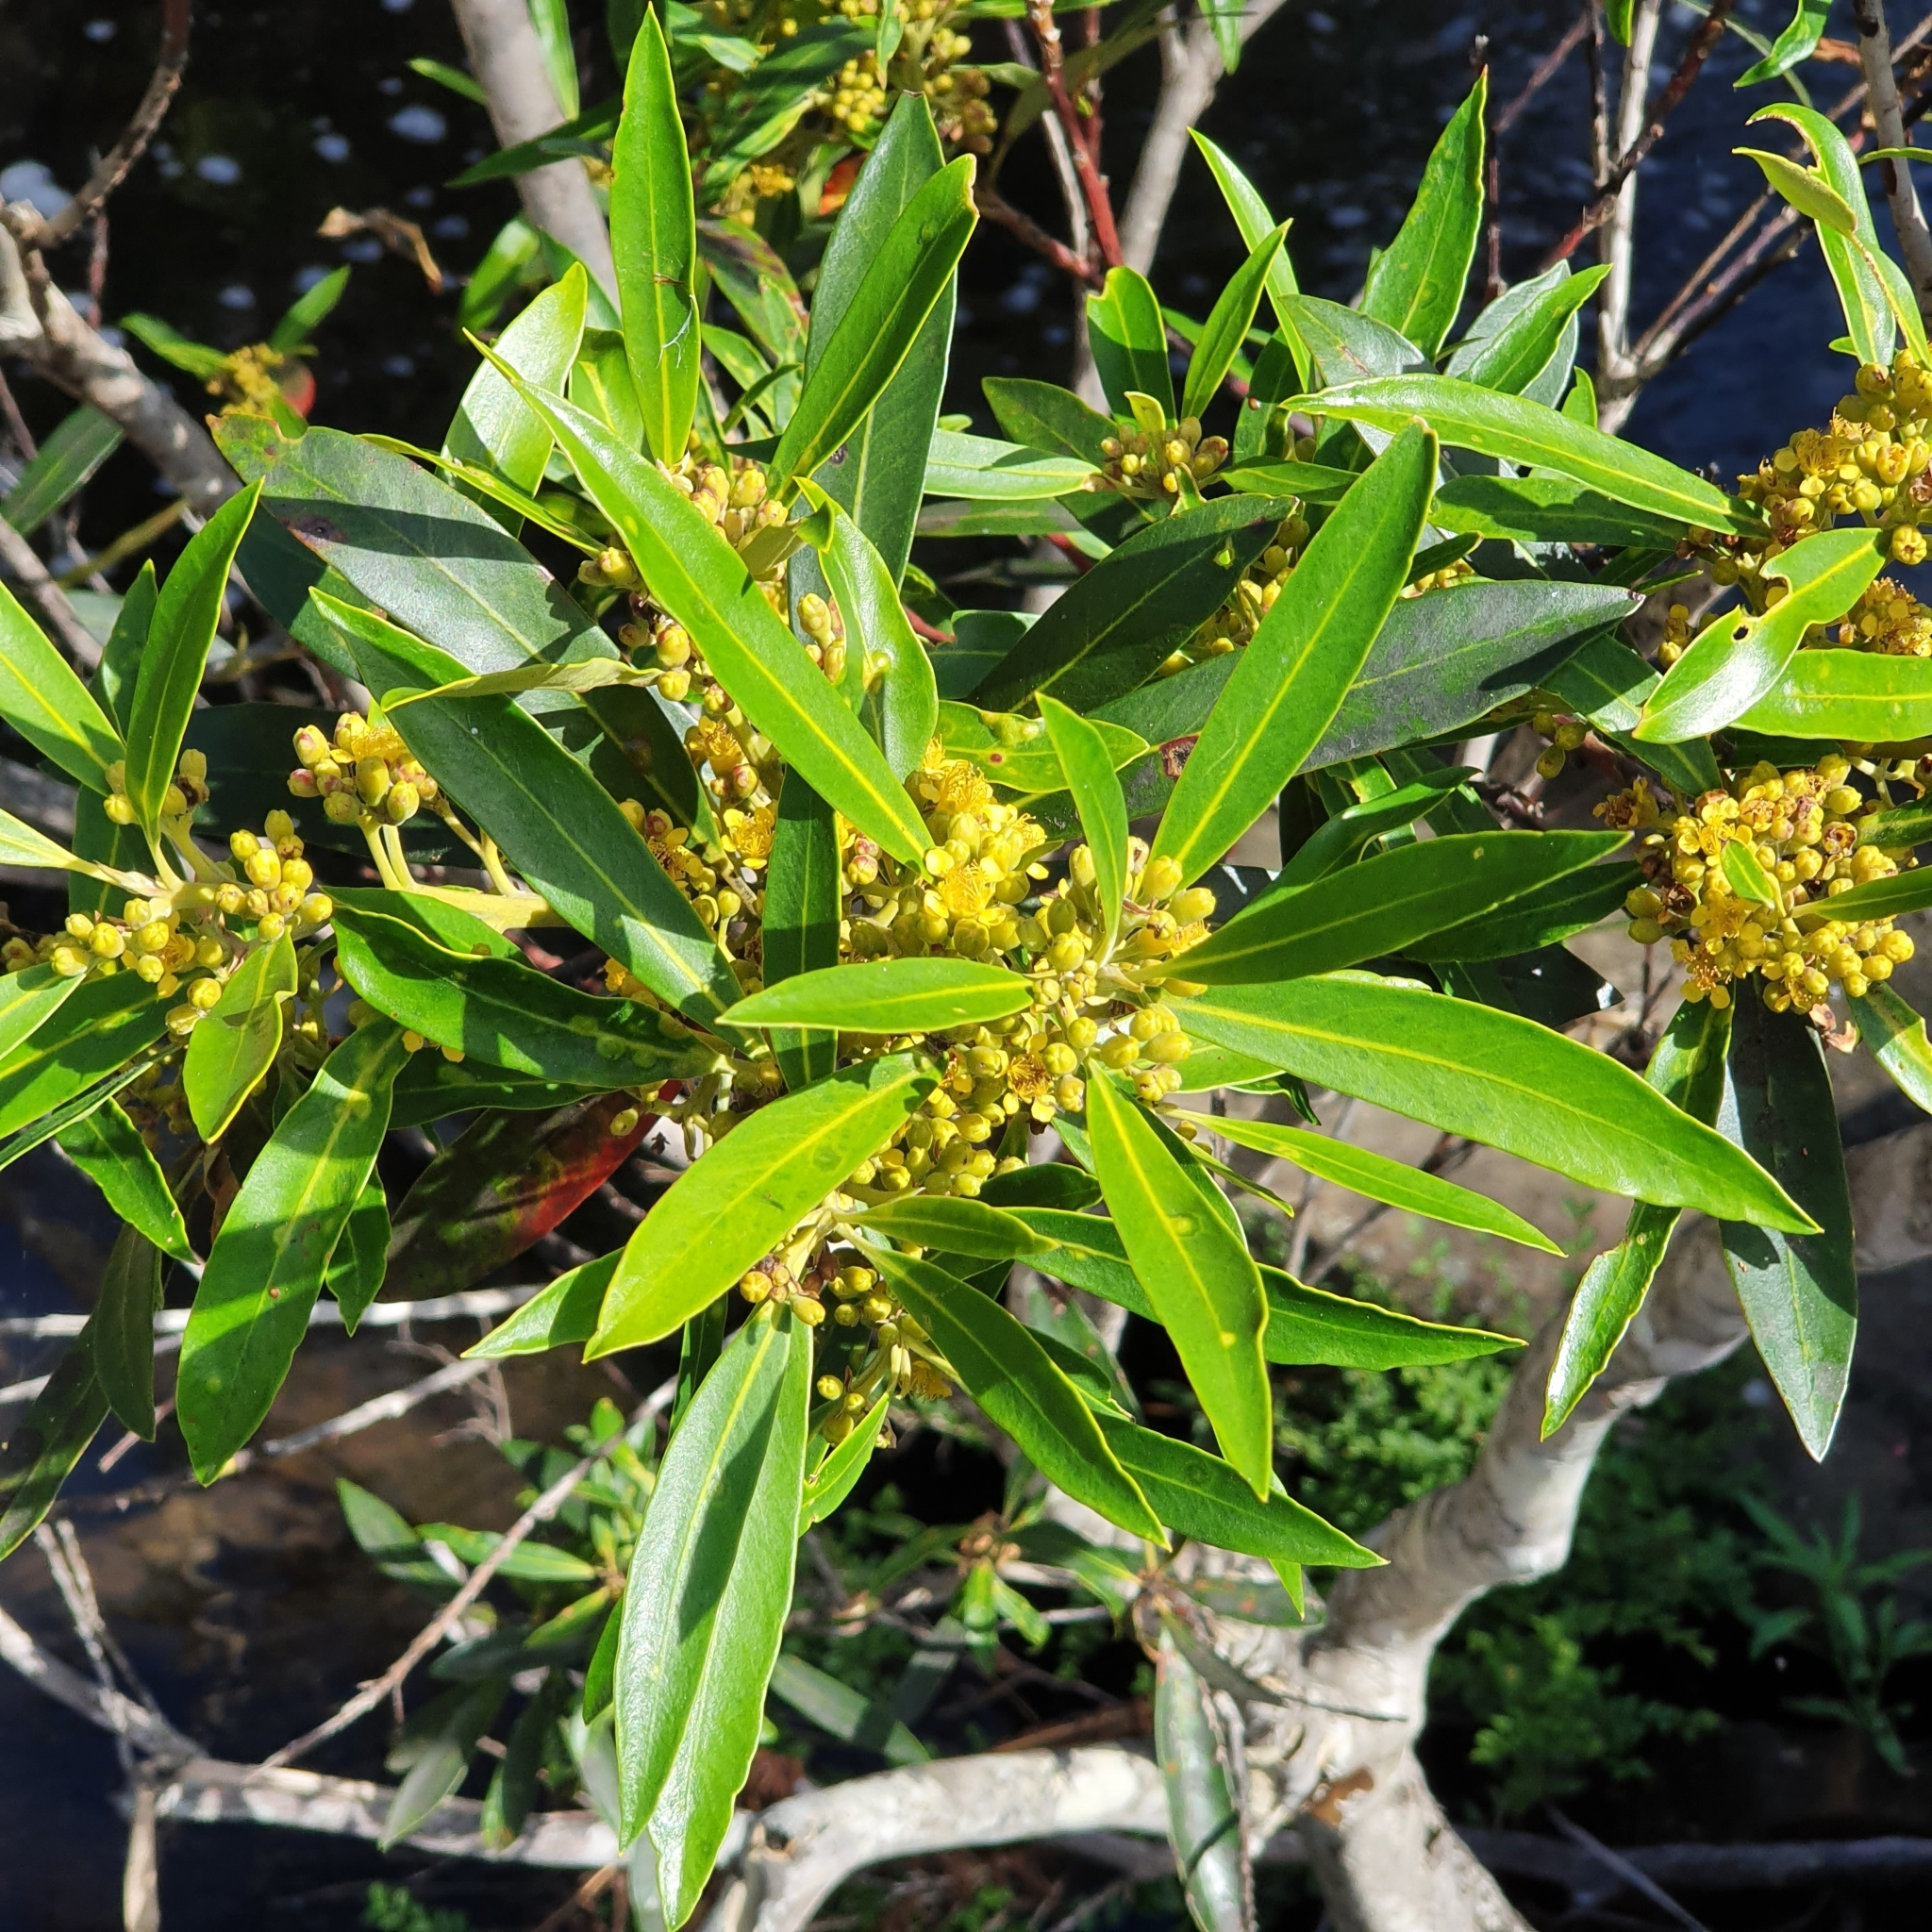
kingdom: Plantae
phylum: Tracheophyta
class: Magnoliopsida
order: Myrtales
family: Myrtaceae
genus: Tristaniopsis
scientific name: Tristaniopsis laurina
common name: Water-gum
